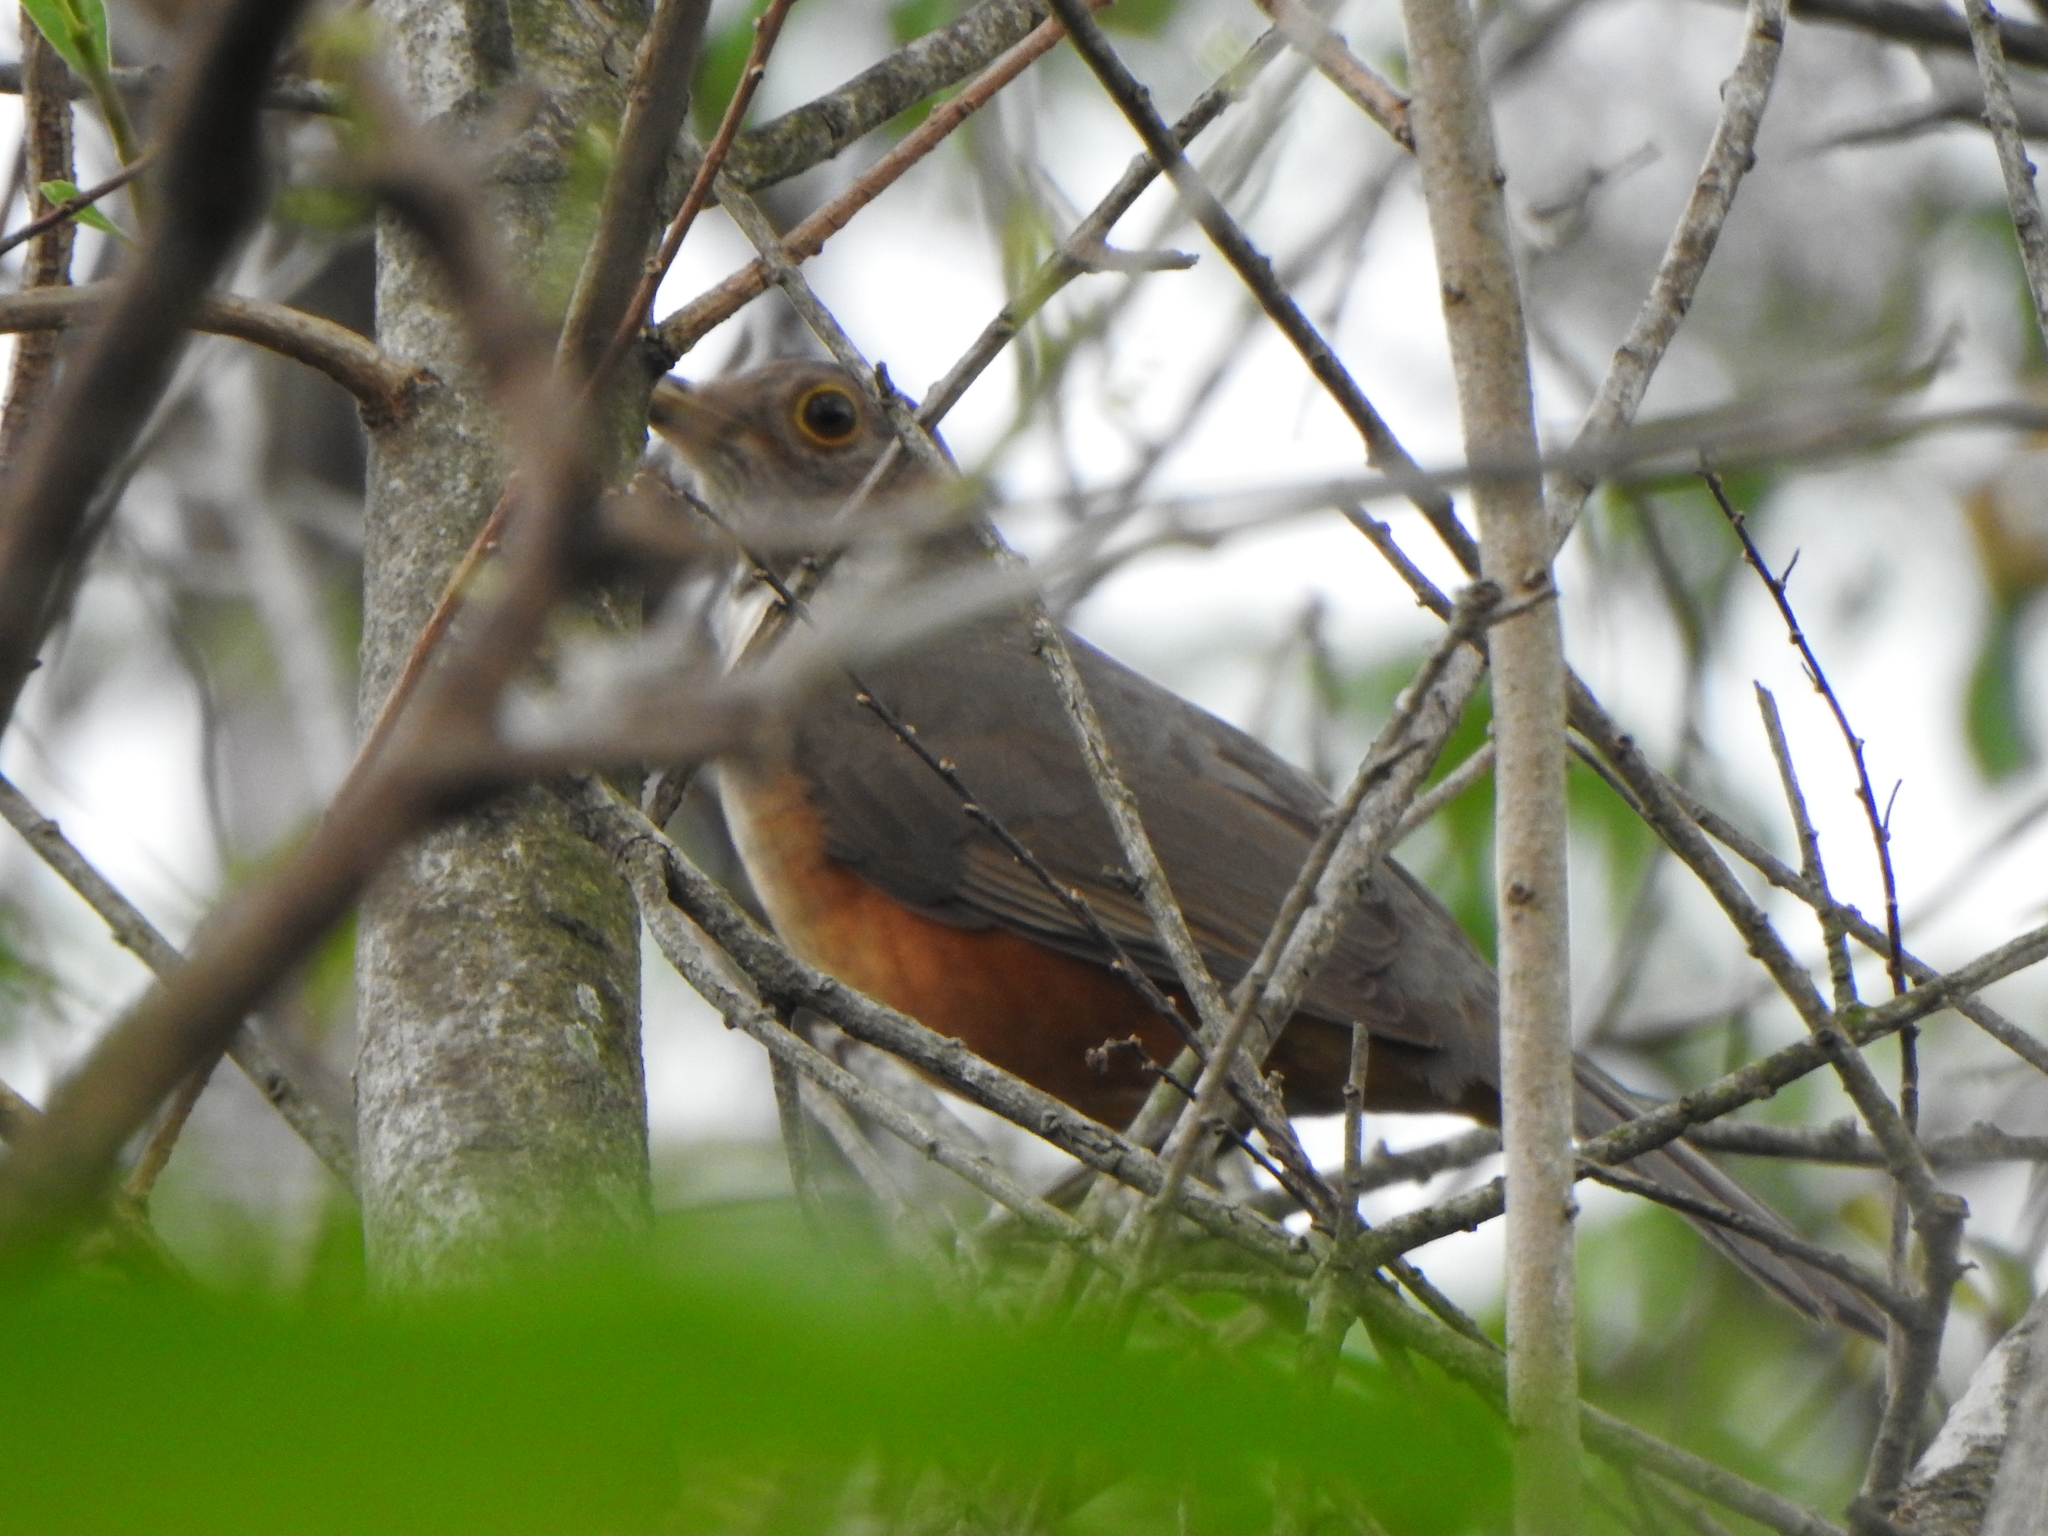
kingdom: Animalia
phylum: Chordata
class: Aves
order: Passeriformes
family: Turdidae
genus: Turdus
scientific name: Turdus rufiventris
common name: Rufous-bellied thrush
